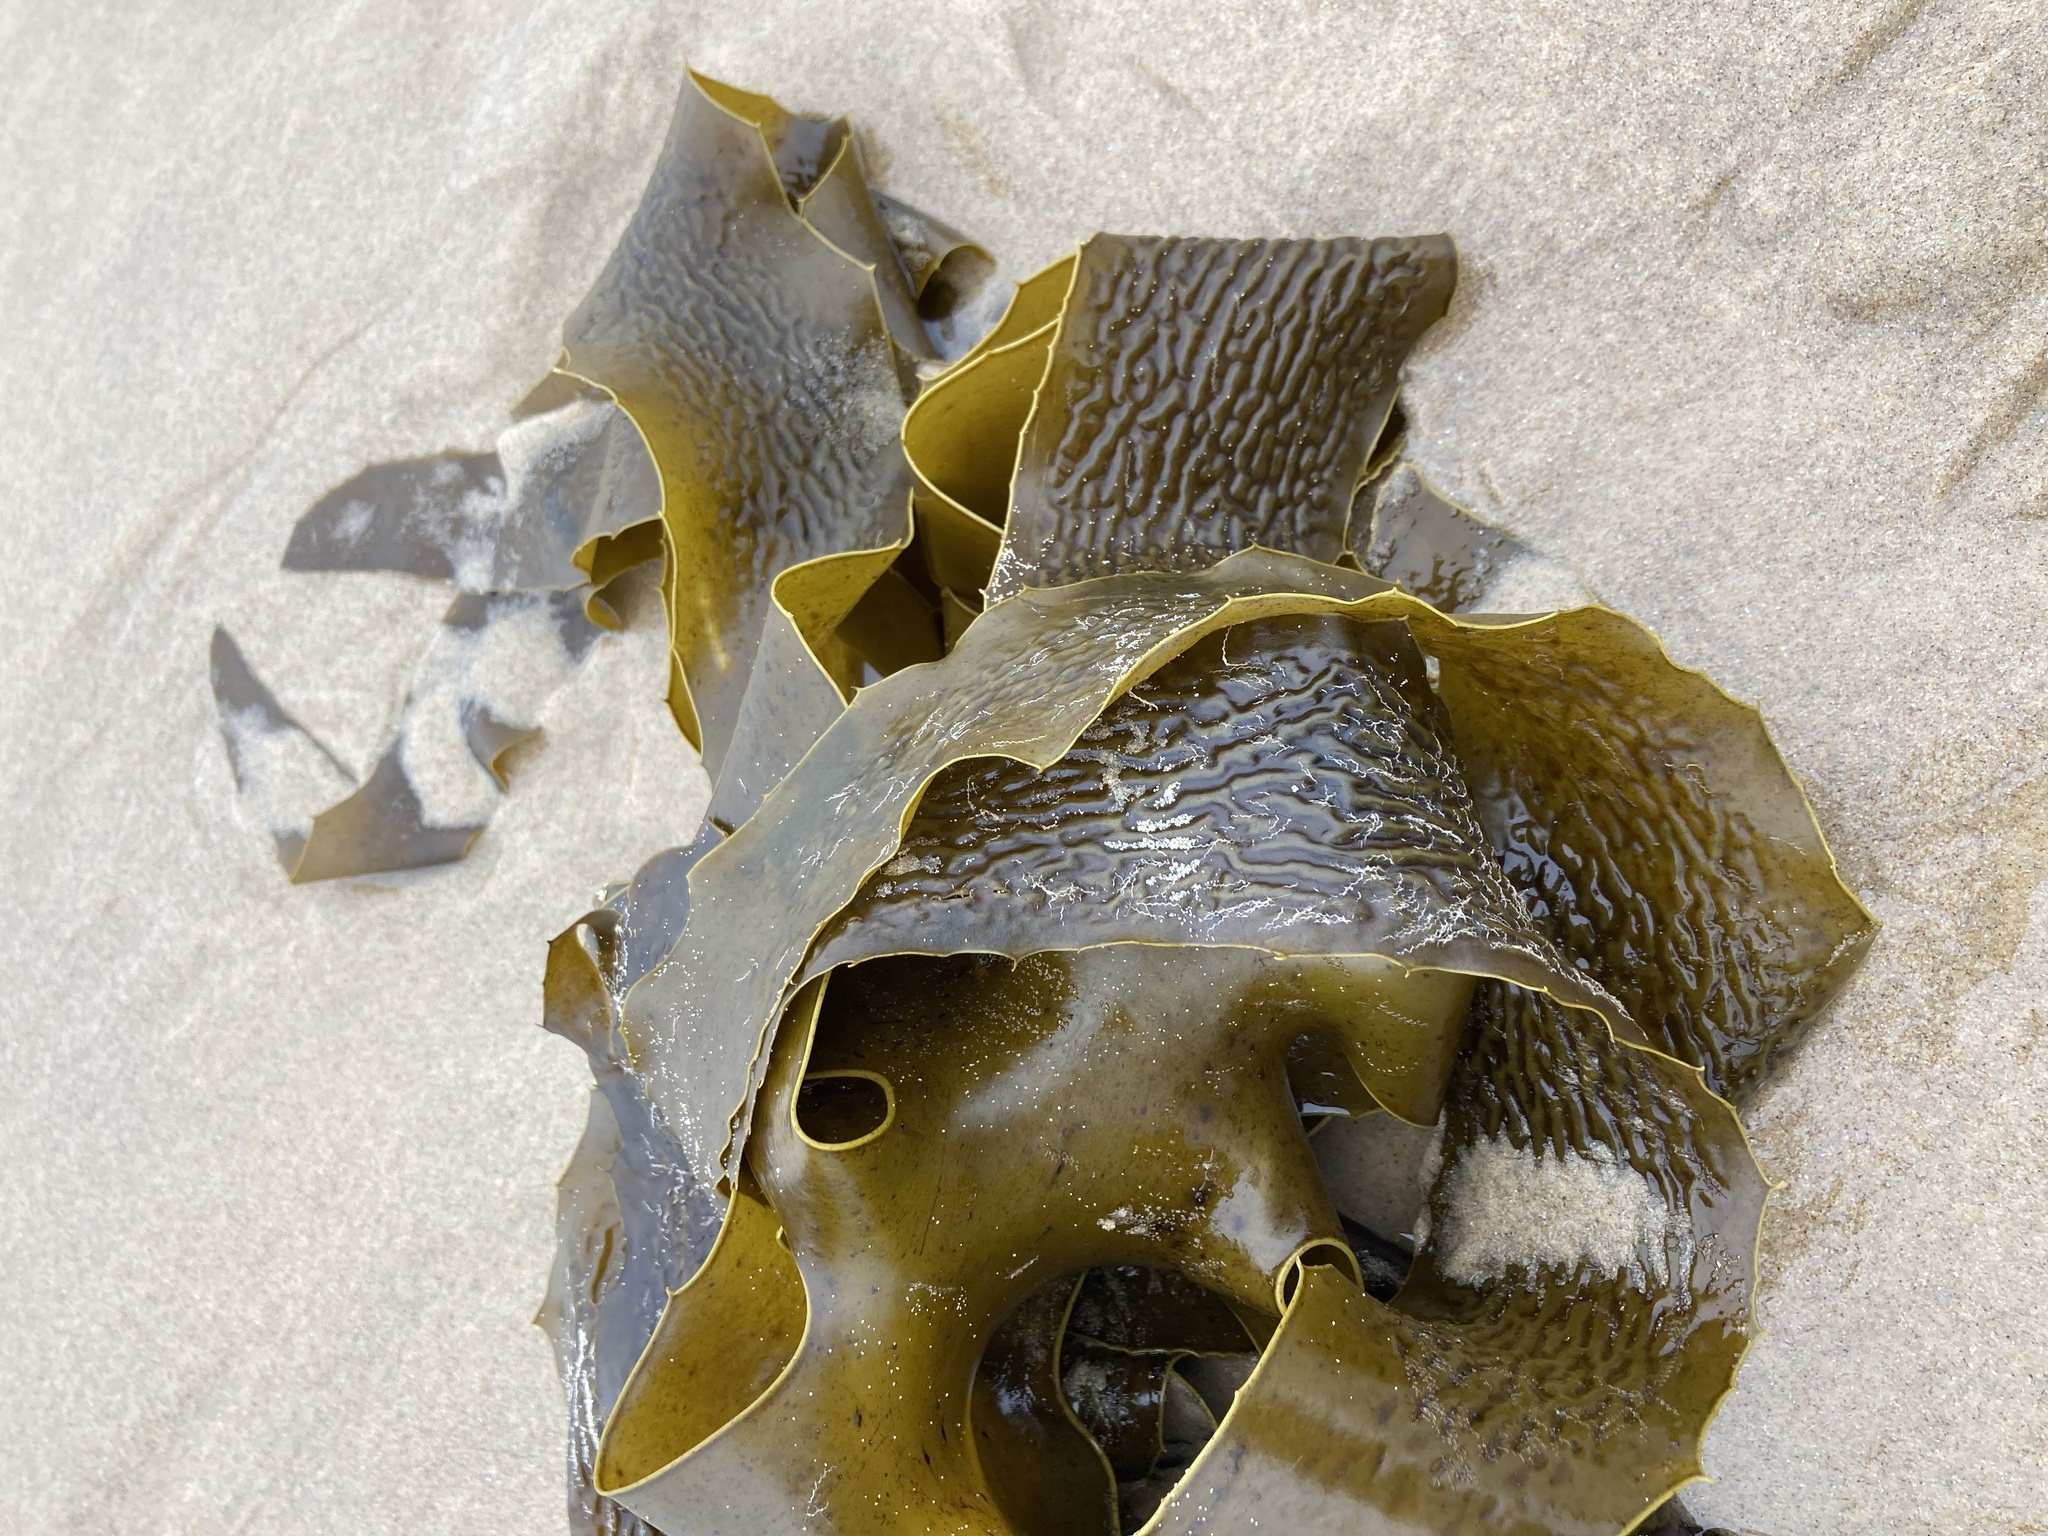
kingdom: Chromista
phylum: Ochrophyta
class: Phaeophyceae
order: Laminariales
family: Lessoniaceae
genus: Ecklonia
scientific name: Ecklonia radiata
